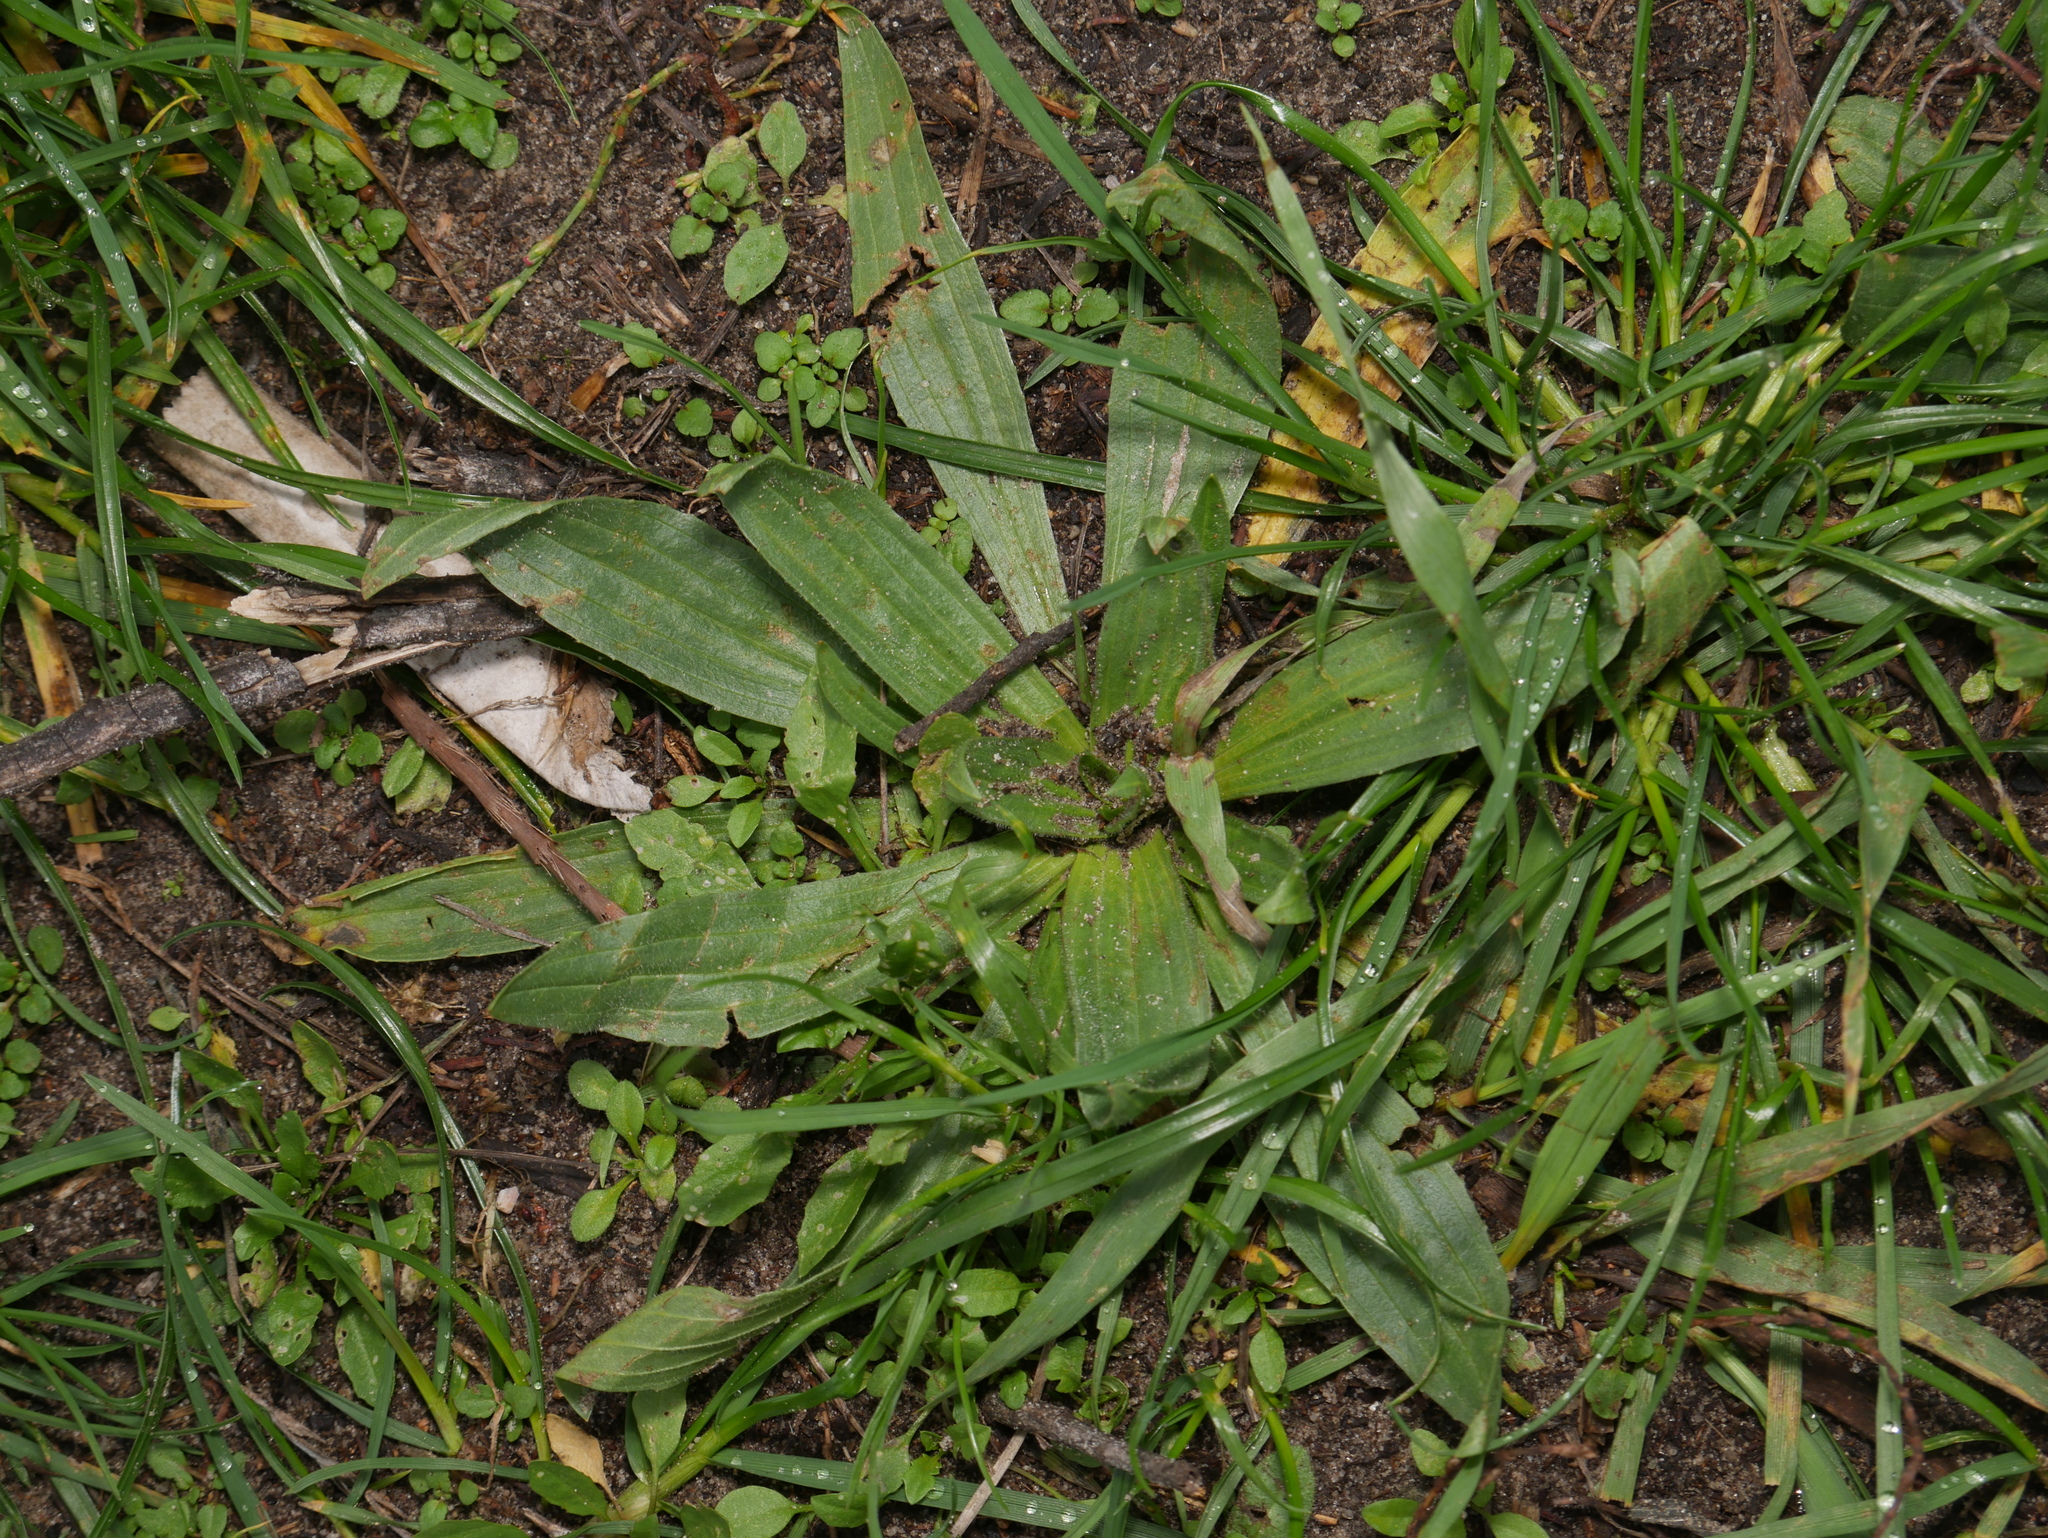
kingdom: Plantae
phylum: Tracheophyta
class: Magnoliopsida
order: Lamiales
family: Plantaginaceae
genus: Plantago
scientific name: Plantago lanceolata
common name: Ribwort plantain
